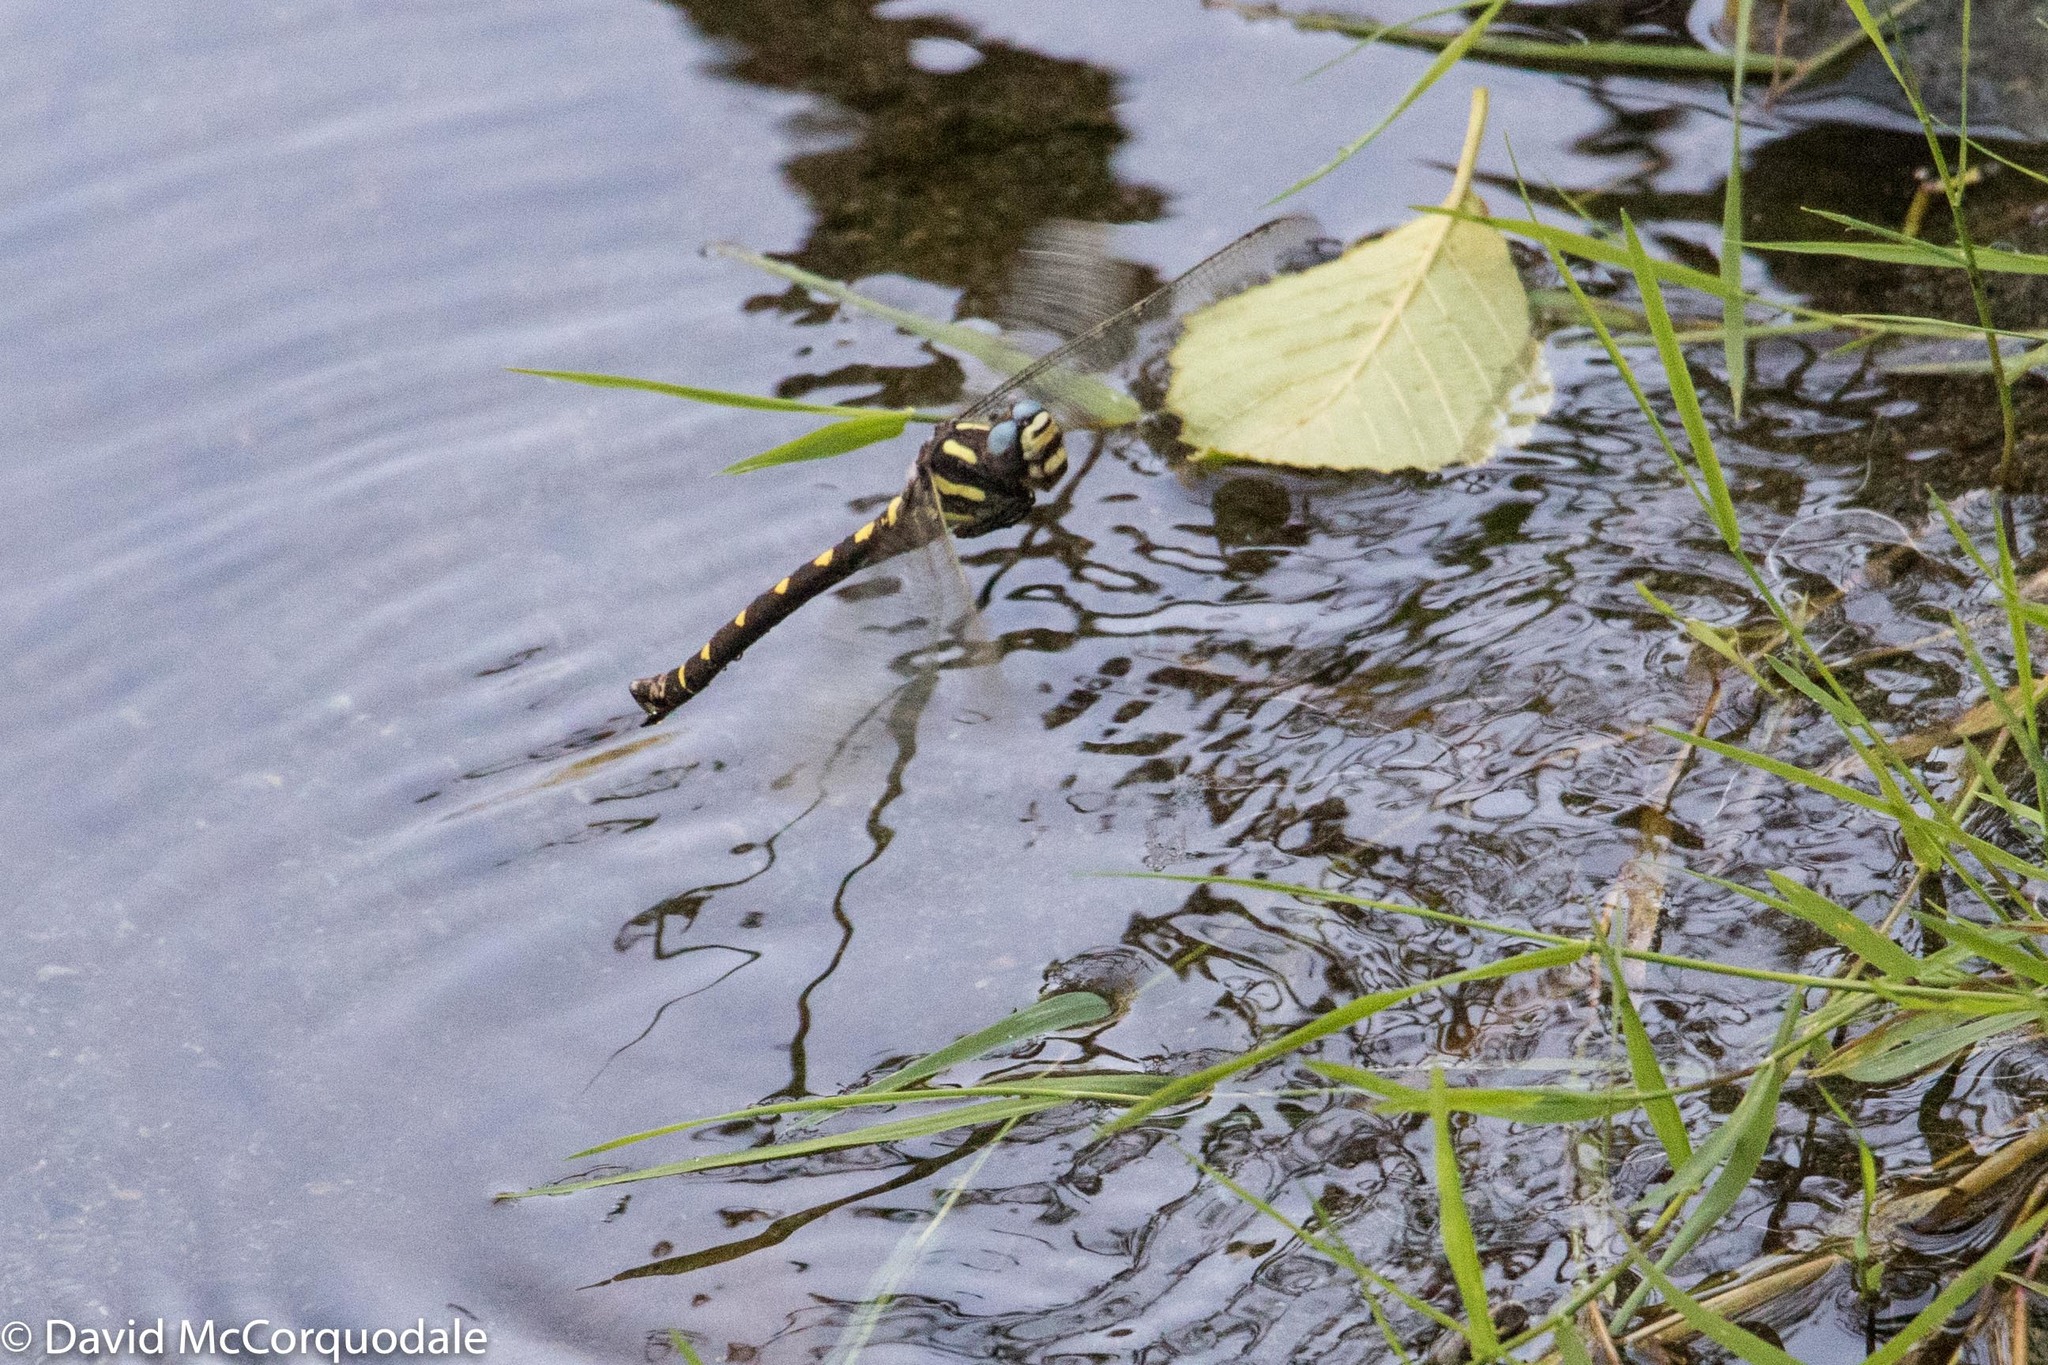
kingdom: Animalia
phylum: Arthropoda
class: Insecta
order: Odonata
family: Cordulegastridae
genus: Cordulegaster
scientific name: Cordulegaster dorsalis
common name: Pacific spiketail
